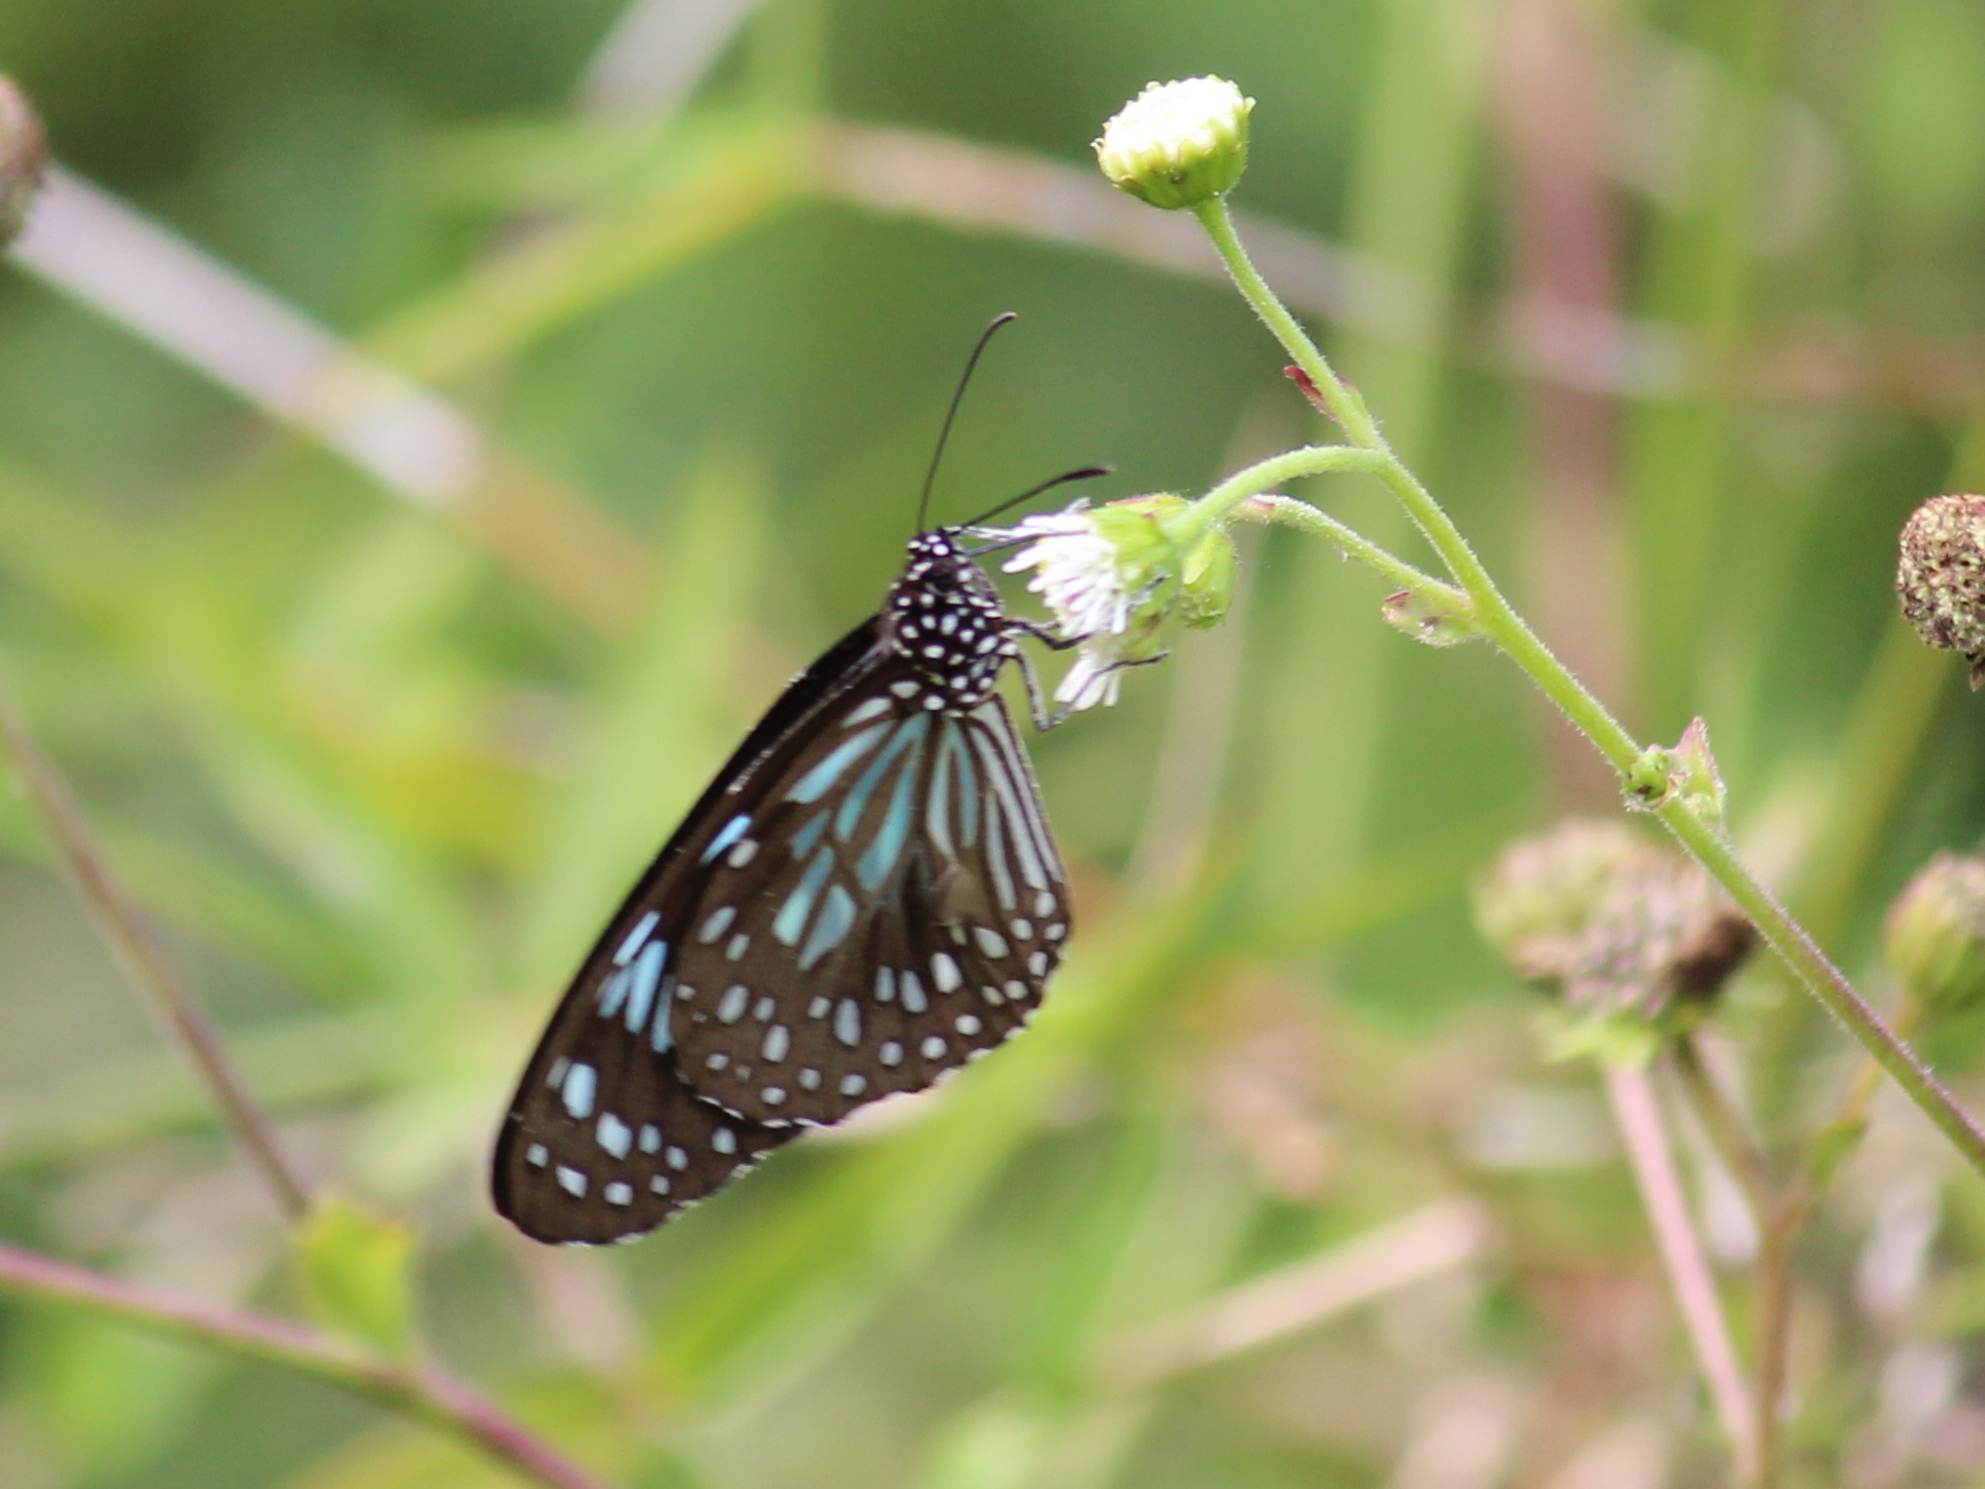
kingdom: Animalia
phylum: Arthropoda
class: Insecta
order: Lepidoptera
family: Nymphalidae
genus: Tirumala
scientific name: Tirumala septentrionis
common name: Dark blue tiger butterfly
